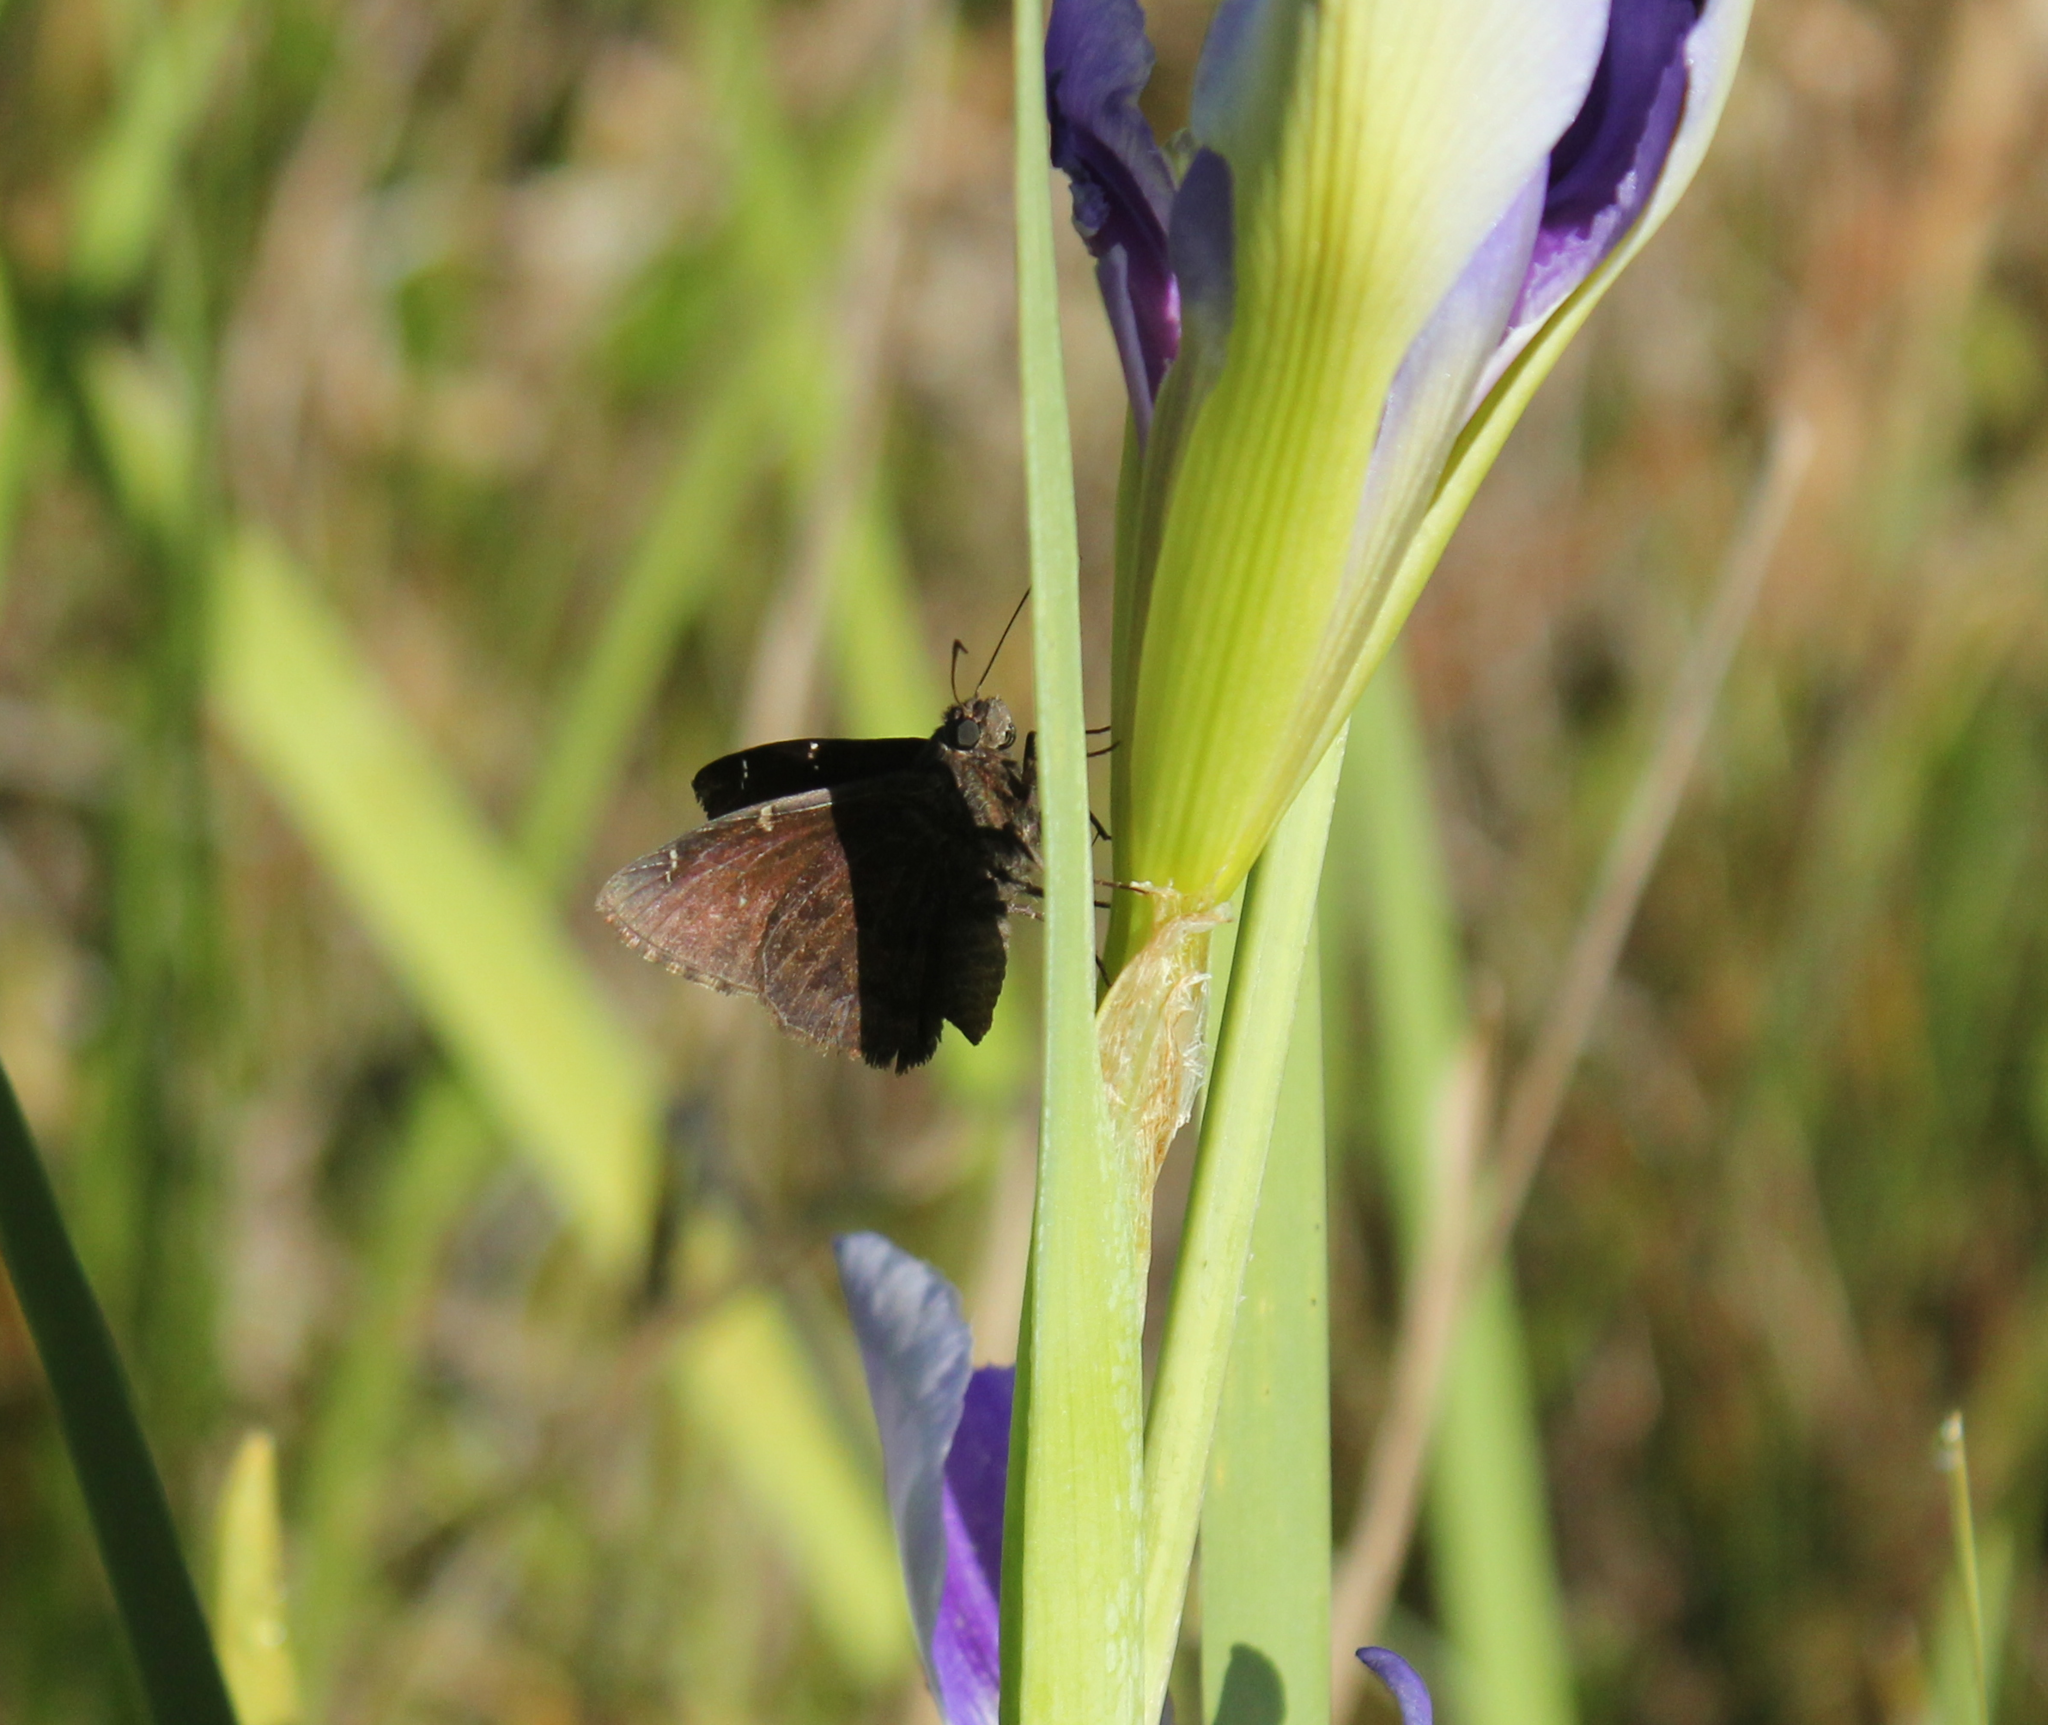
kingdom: Animalia
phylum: Arthropoda
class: Insecta
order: Lepidoptera
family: Hesperiidae
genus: Thorybes
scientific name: Thorybes pylades
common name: Northern cloudywing
